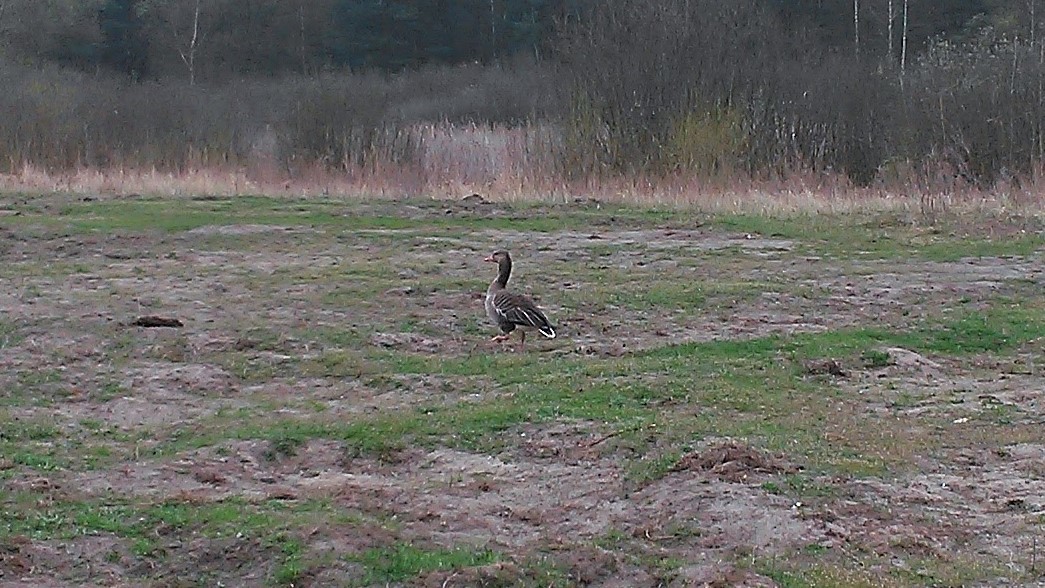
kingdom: Animalia
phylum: Chordata
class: Aves
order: Anseriformes
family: Anatidae
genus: Anser
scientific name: Anser anser
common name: Greylag goose
